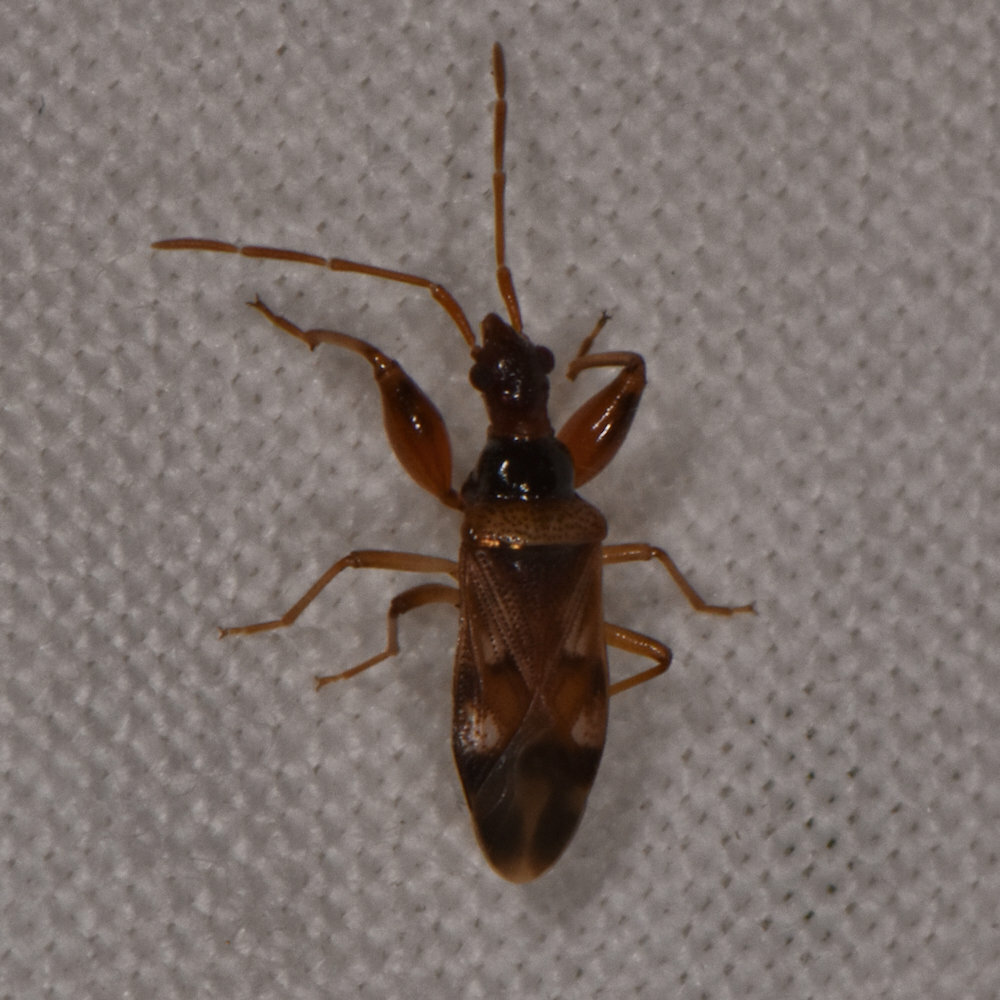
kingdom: Animalia
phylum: Arthropoda
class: Insecta
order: Hemiptera
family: Rhyparochromidae
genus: Ethaltomarus
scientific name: Ethaltomarus rugosus
